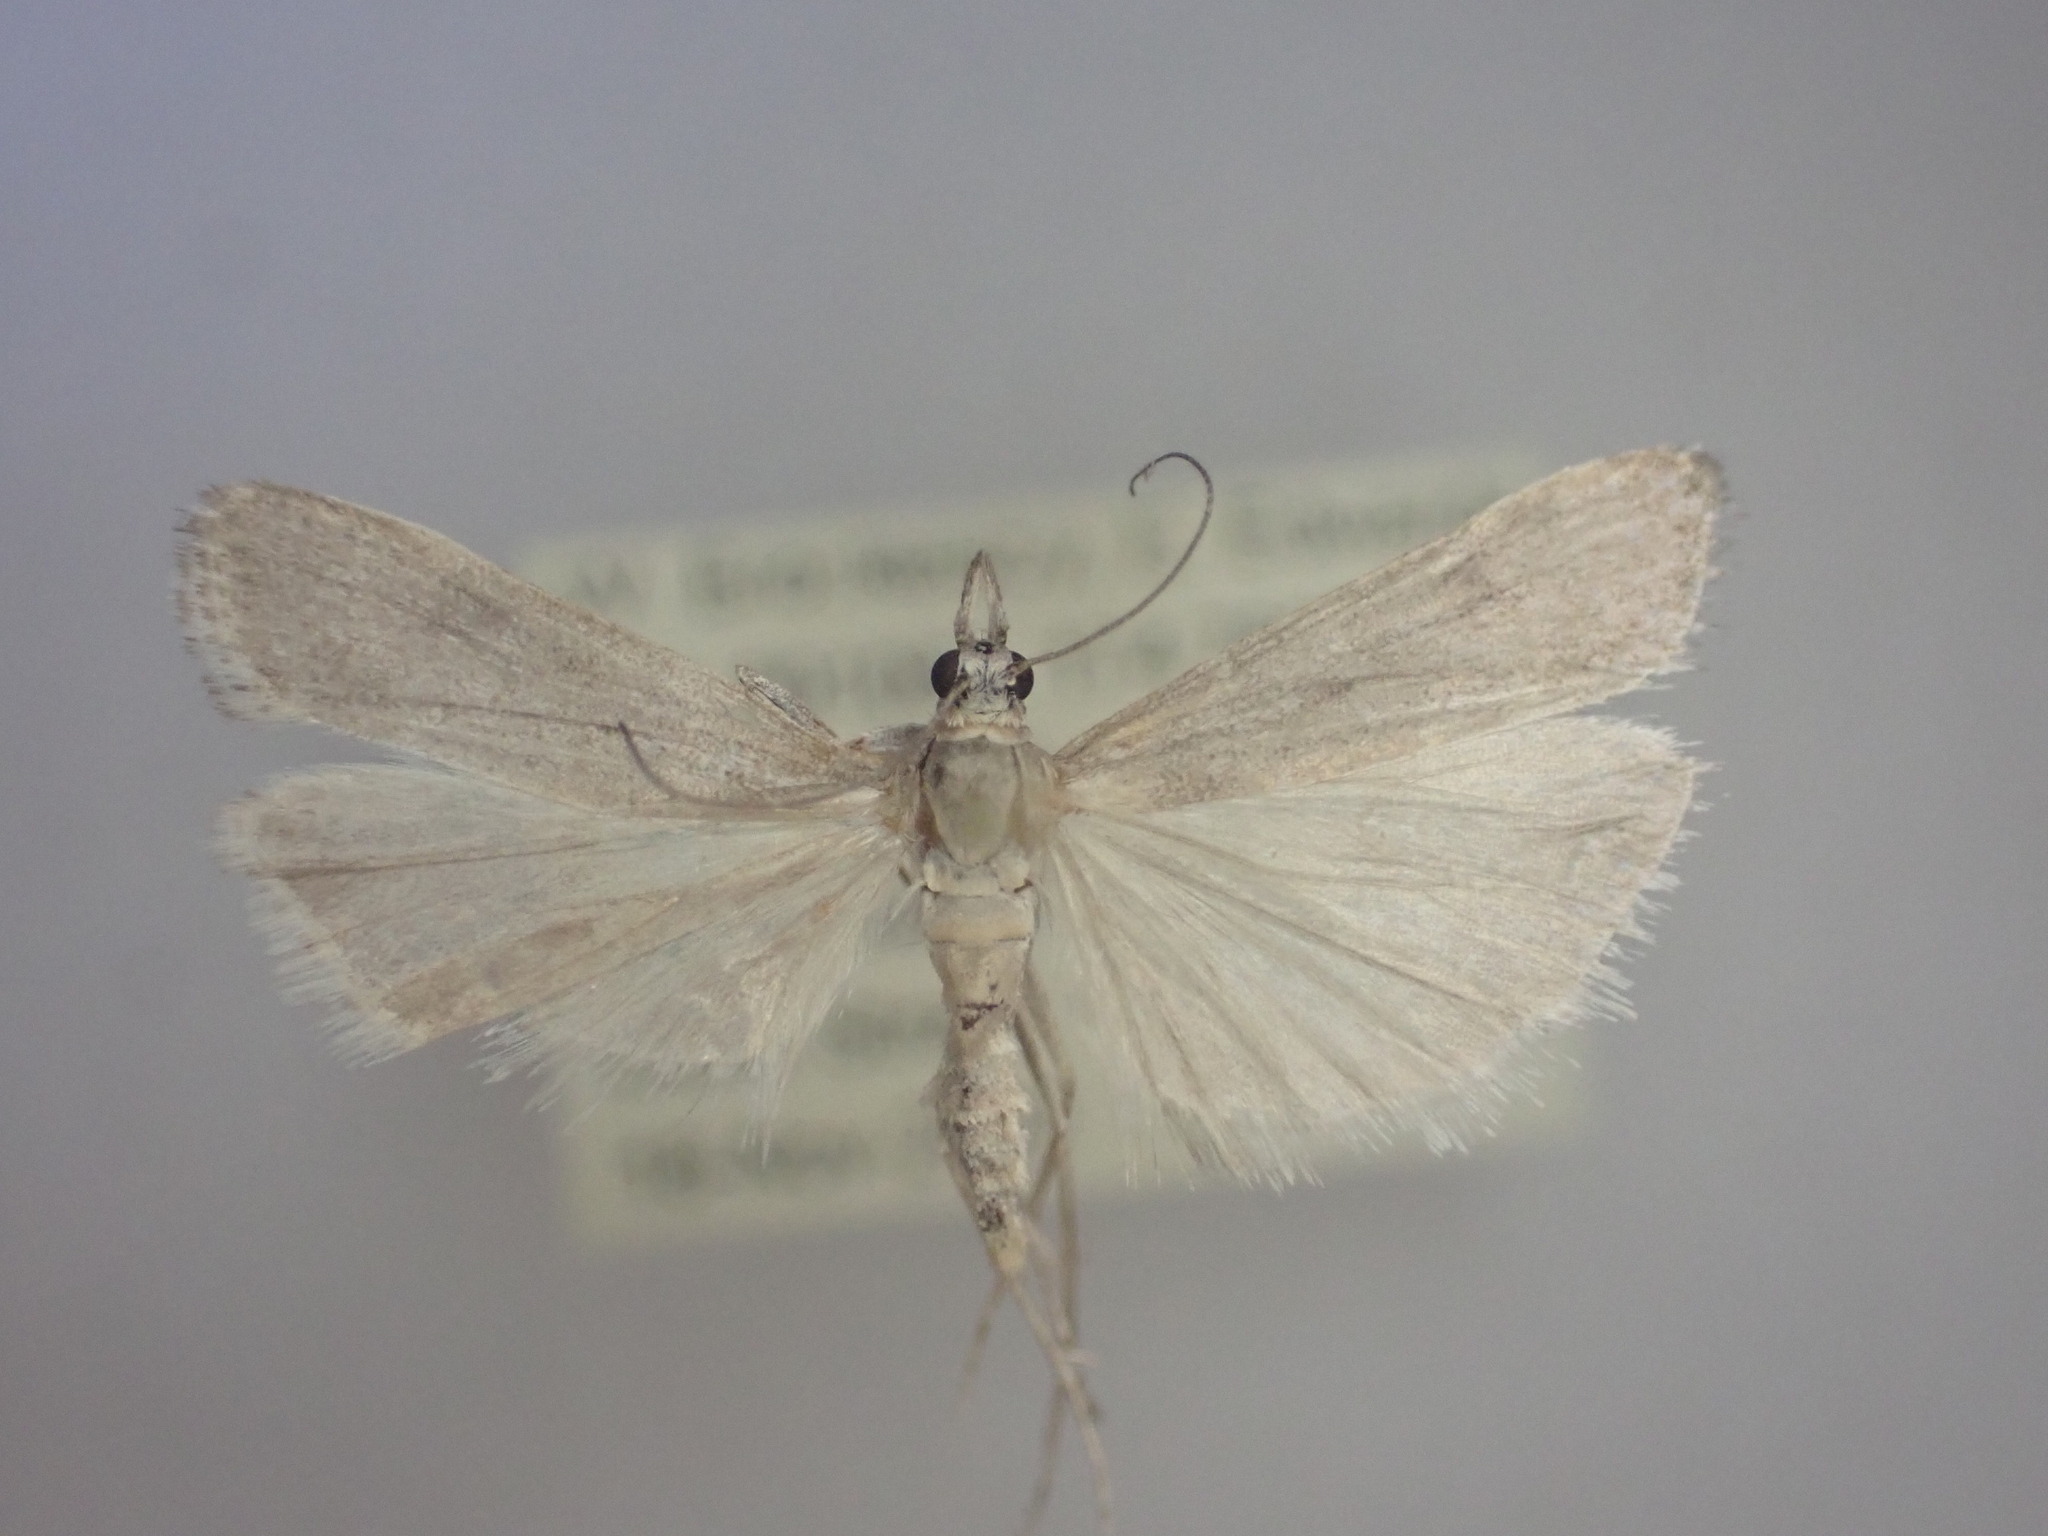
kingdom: Animalia
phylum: Arthropoda
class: Insecta
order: Lepidoptera
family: Crambidae
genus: Eudonia
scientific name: Eudonia leptalea
